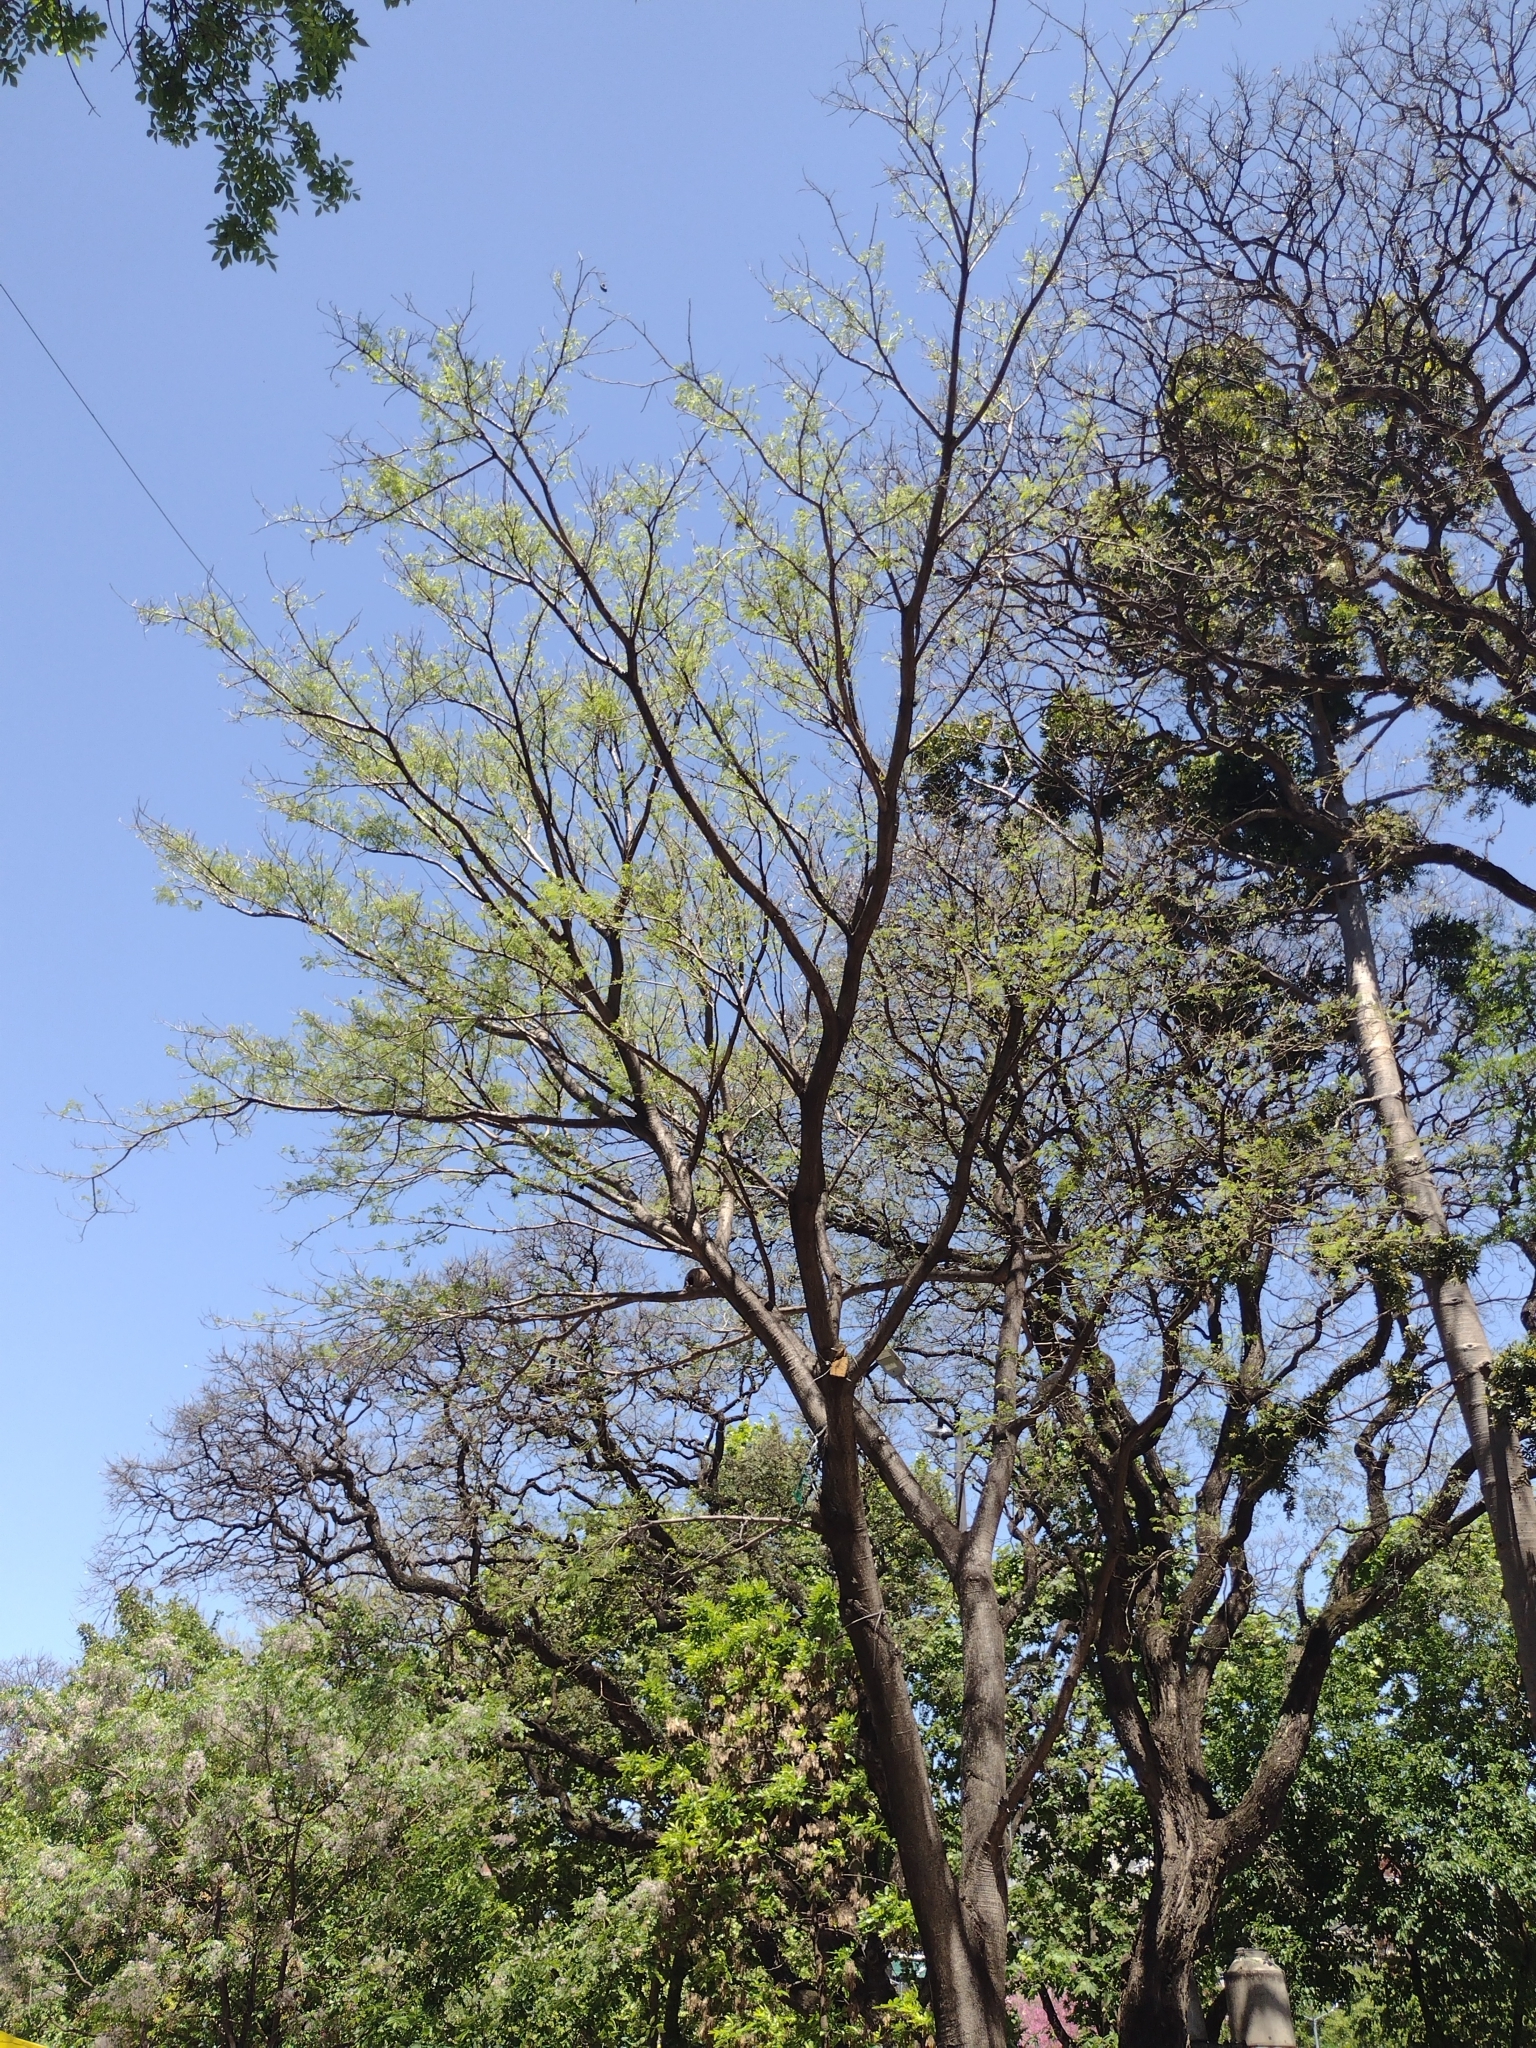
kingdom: Plantae
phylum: Tracheophyta
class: Magnoliopsida
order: Fabales
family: Fabaceae
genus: Enterolobium
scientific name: Enterolobium contortisiliquum
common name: Pacara earpod tree
